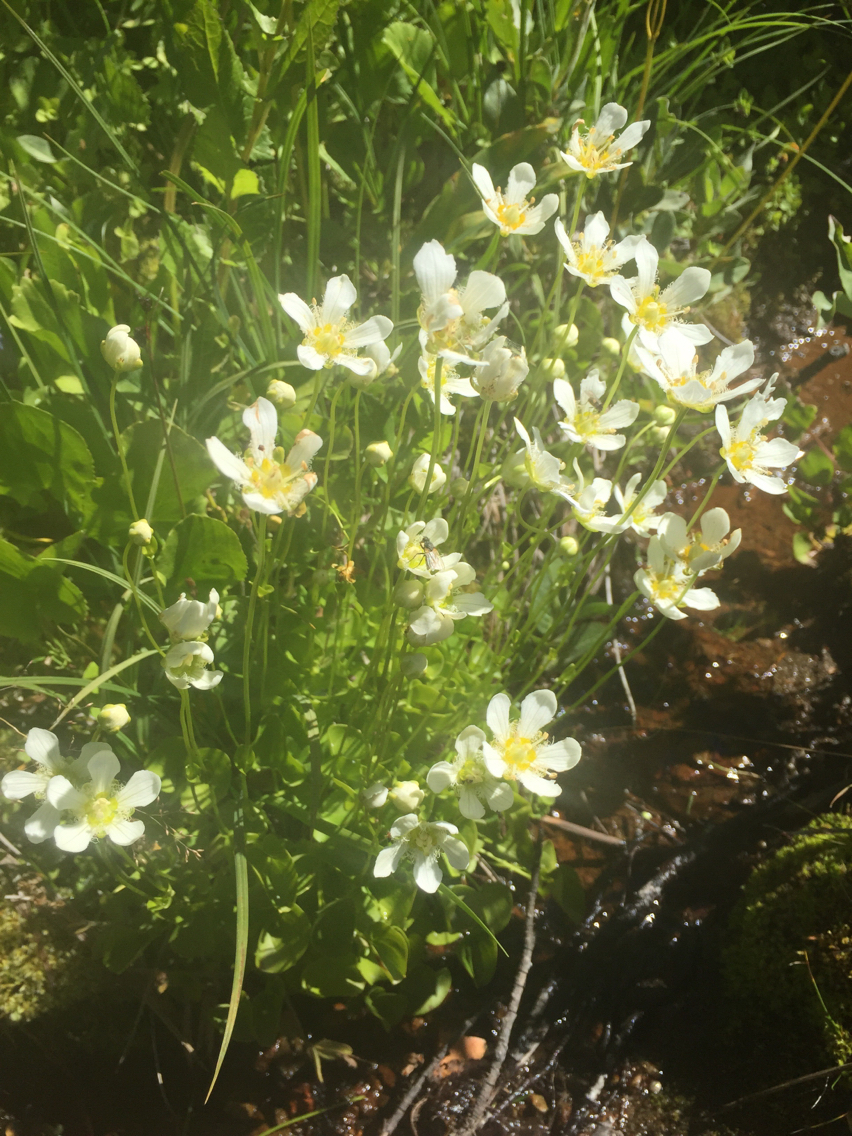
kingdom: Plantae
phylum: Tracheophyta
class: Magnoliopsida
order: Celastrales
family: Parnassiaceae
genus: Parnassia
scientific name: Parnassia fimbriata
